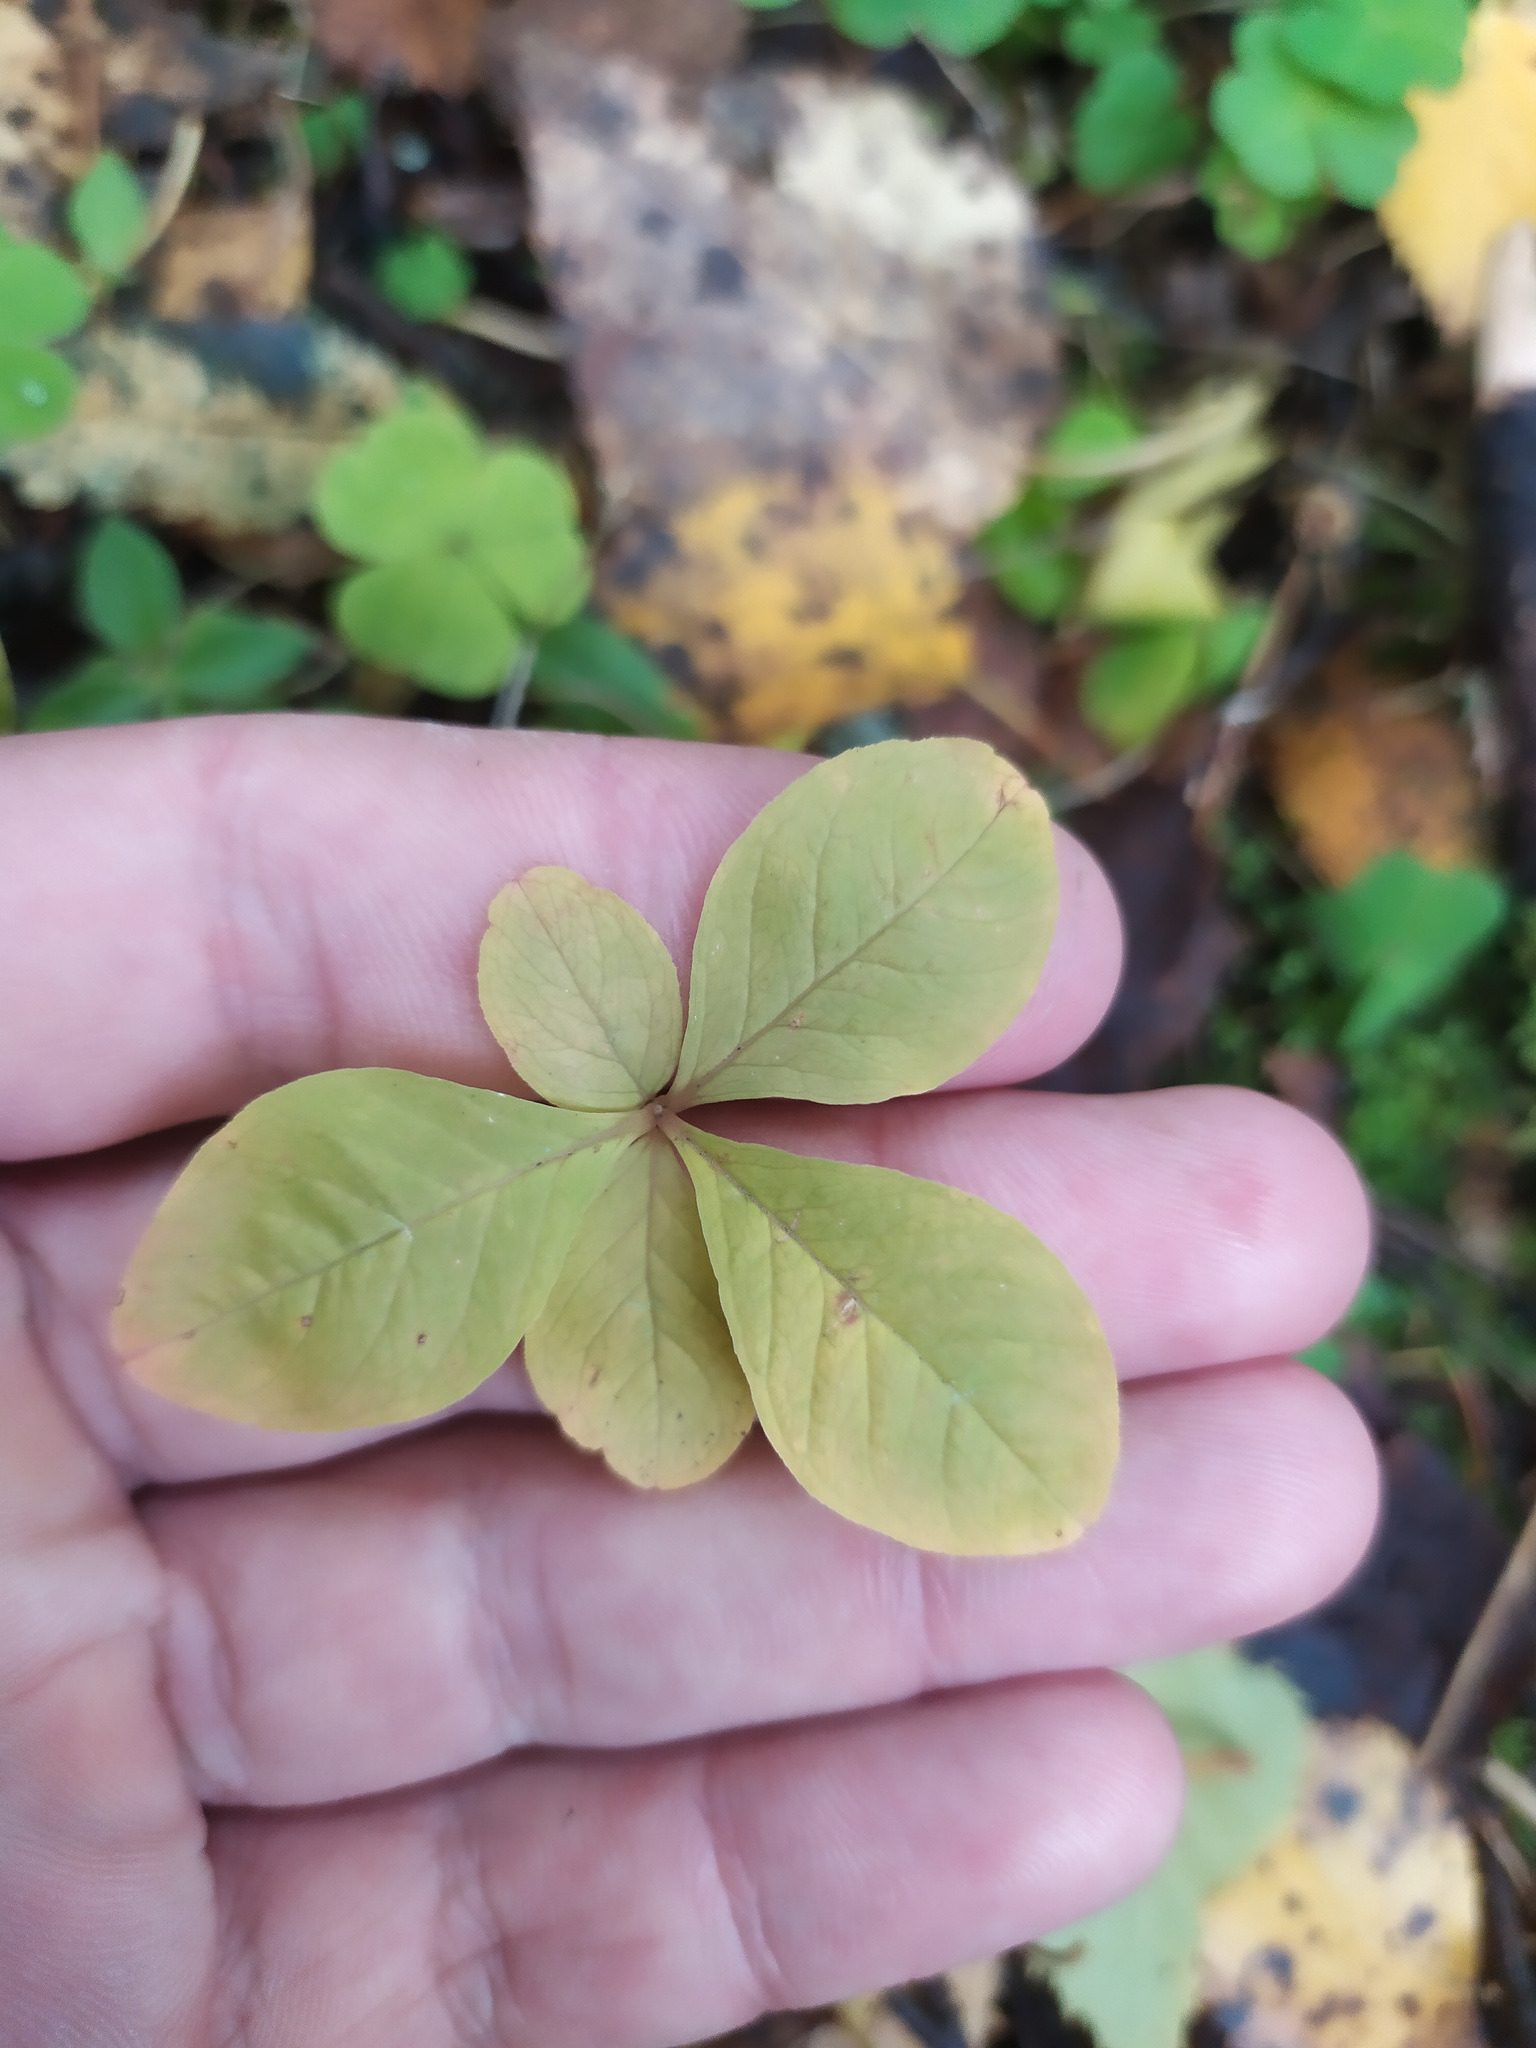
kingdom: Plantae
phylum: Tracheophyta
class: Magnoliopsida
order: Ericales
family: Primulaceae
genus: Lysimachia
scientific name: Lysimachia europaea
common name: Arctic starflower
